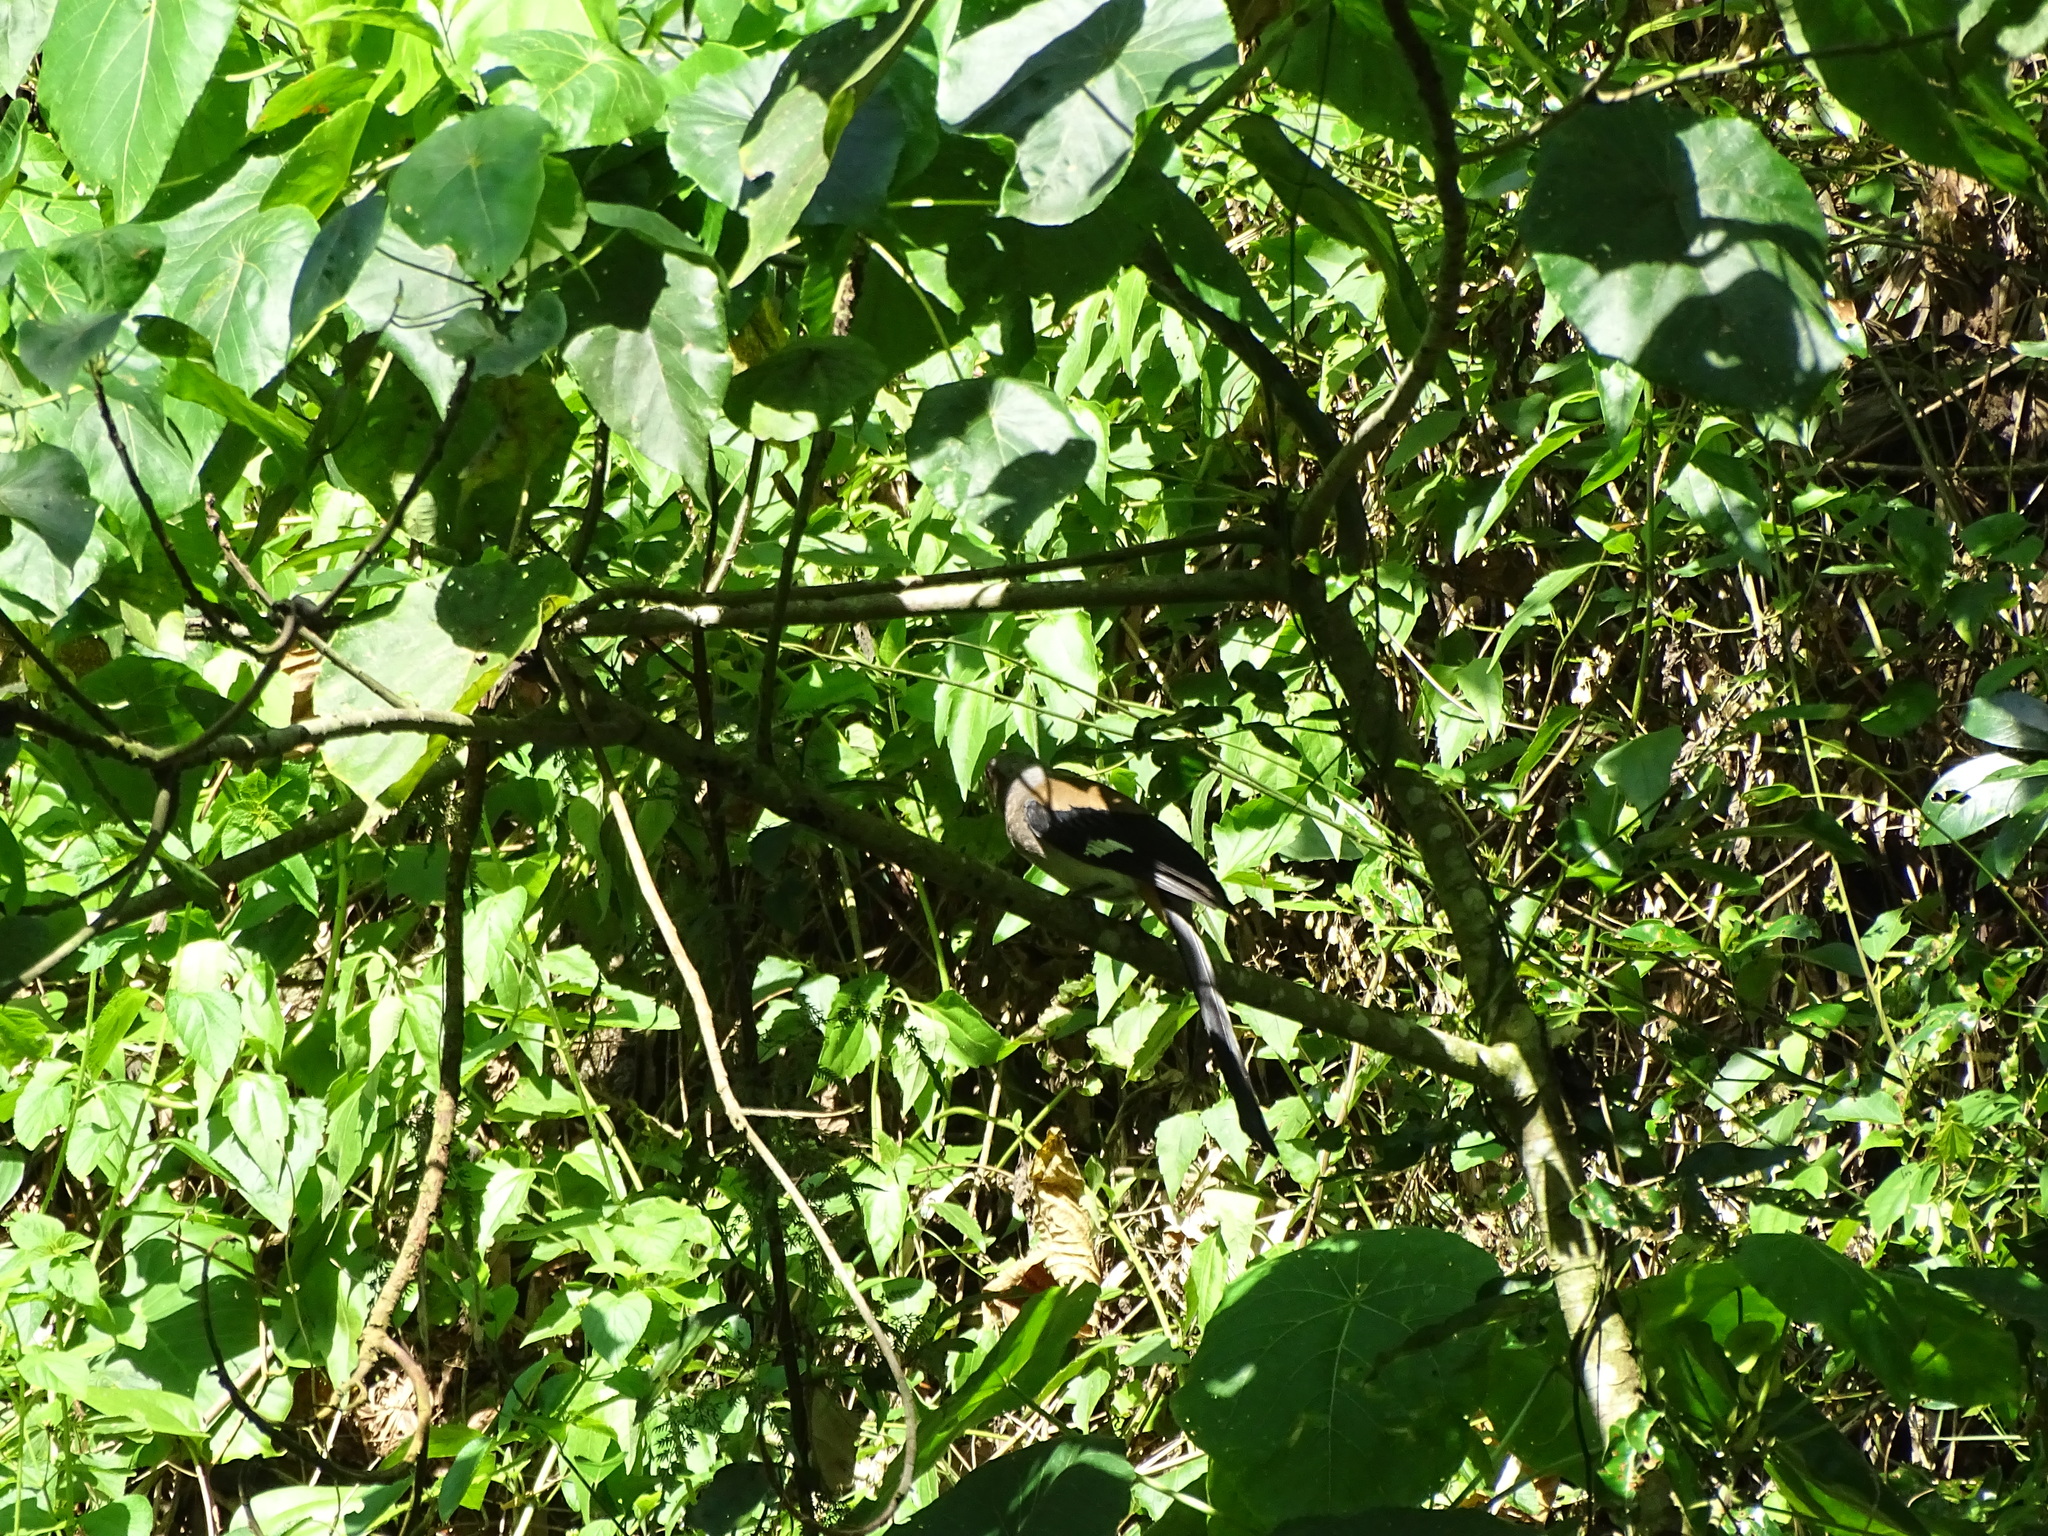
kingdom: Animalia
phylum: Chordata
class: Aves
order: Passeriformes
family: Corvidae
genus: Dendrocitta
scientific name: Dendrocitta formosae
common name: Grey treepie
